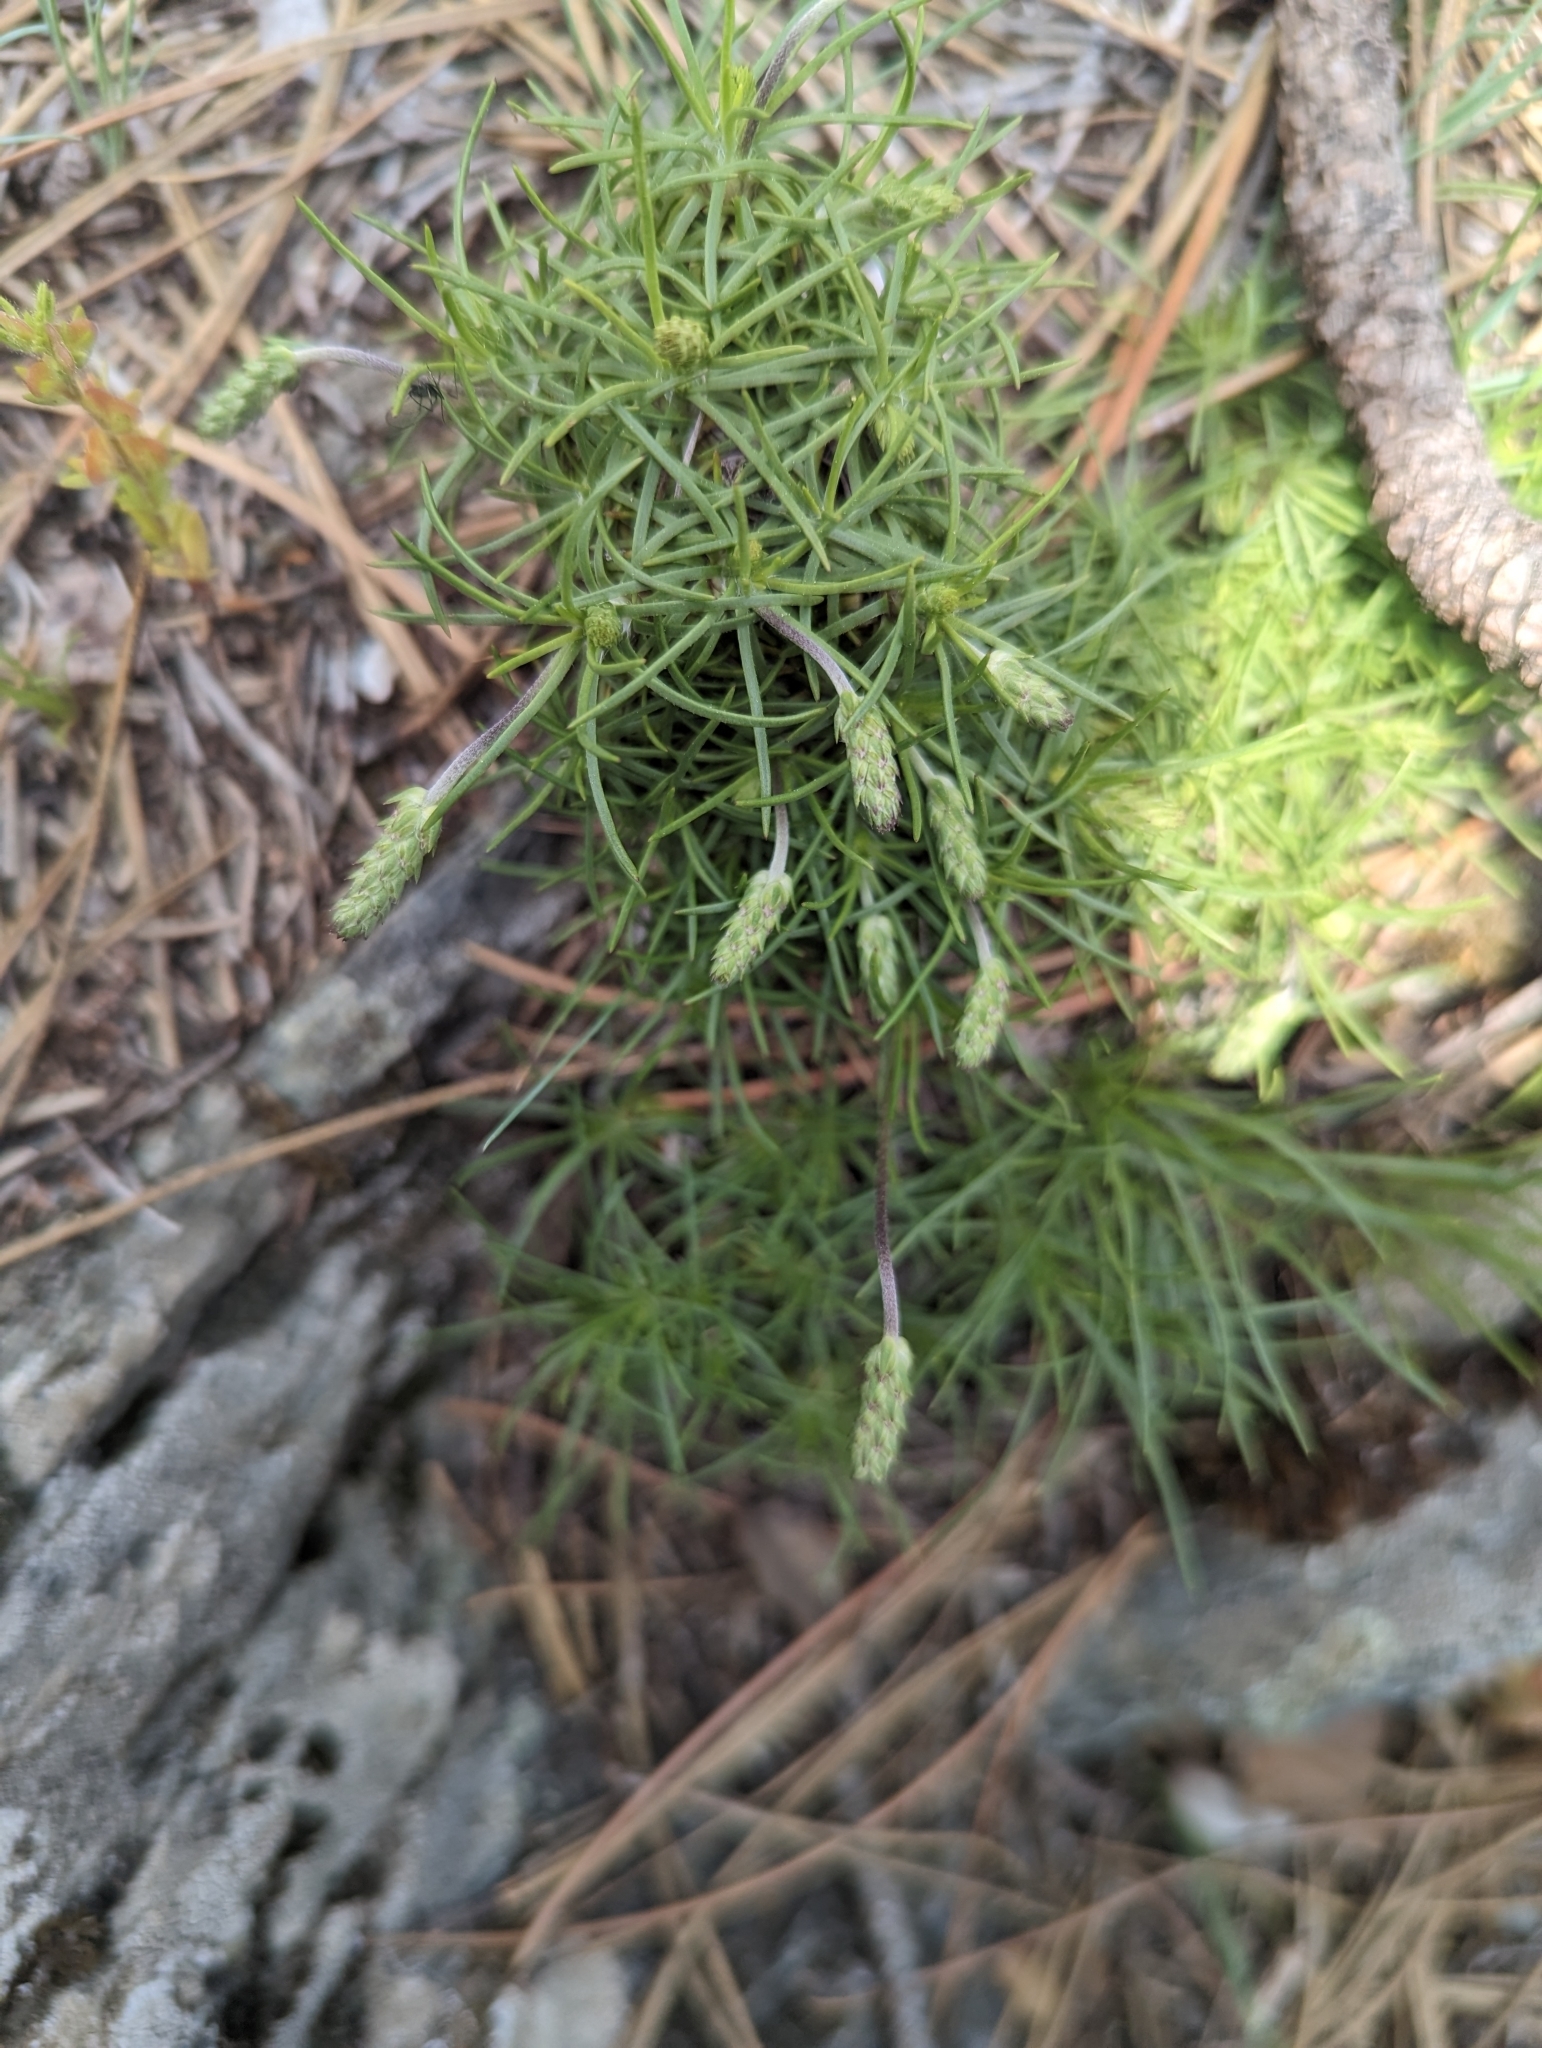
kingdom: Plantae
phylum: Tracheophyta
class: Magnoliopsida
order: Lamiales
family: Plantaginaceae
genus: Plantago
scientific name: Plantago subulata
